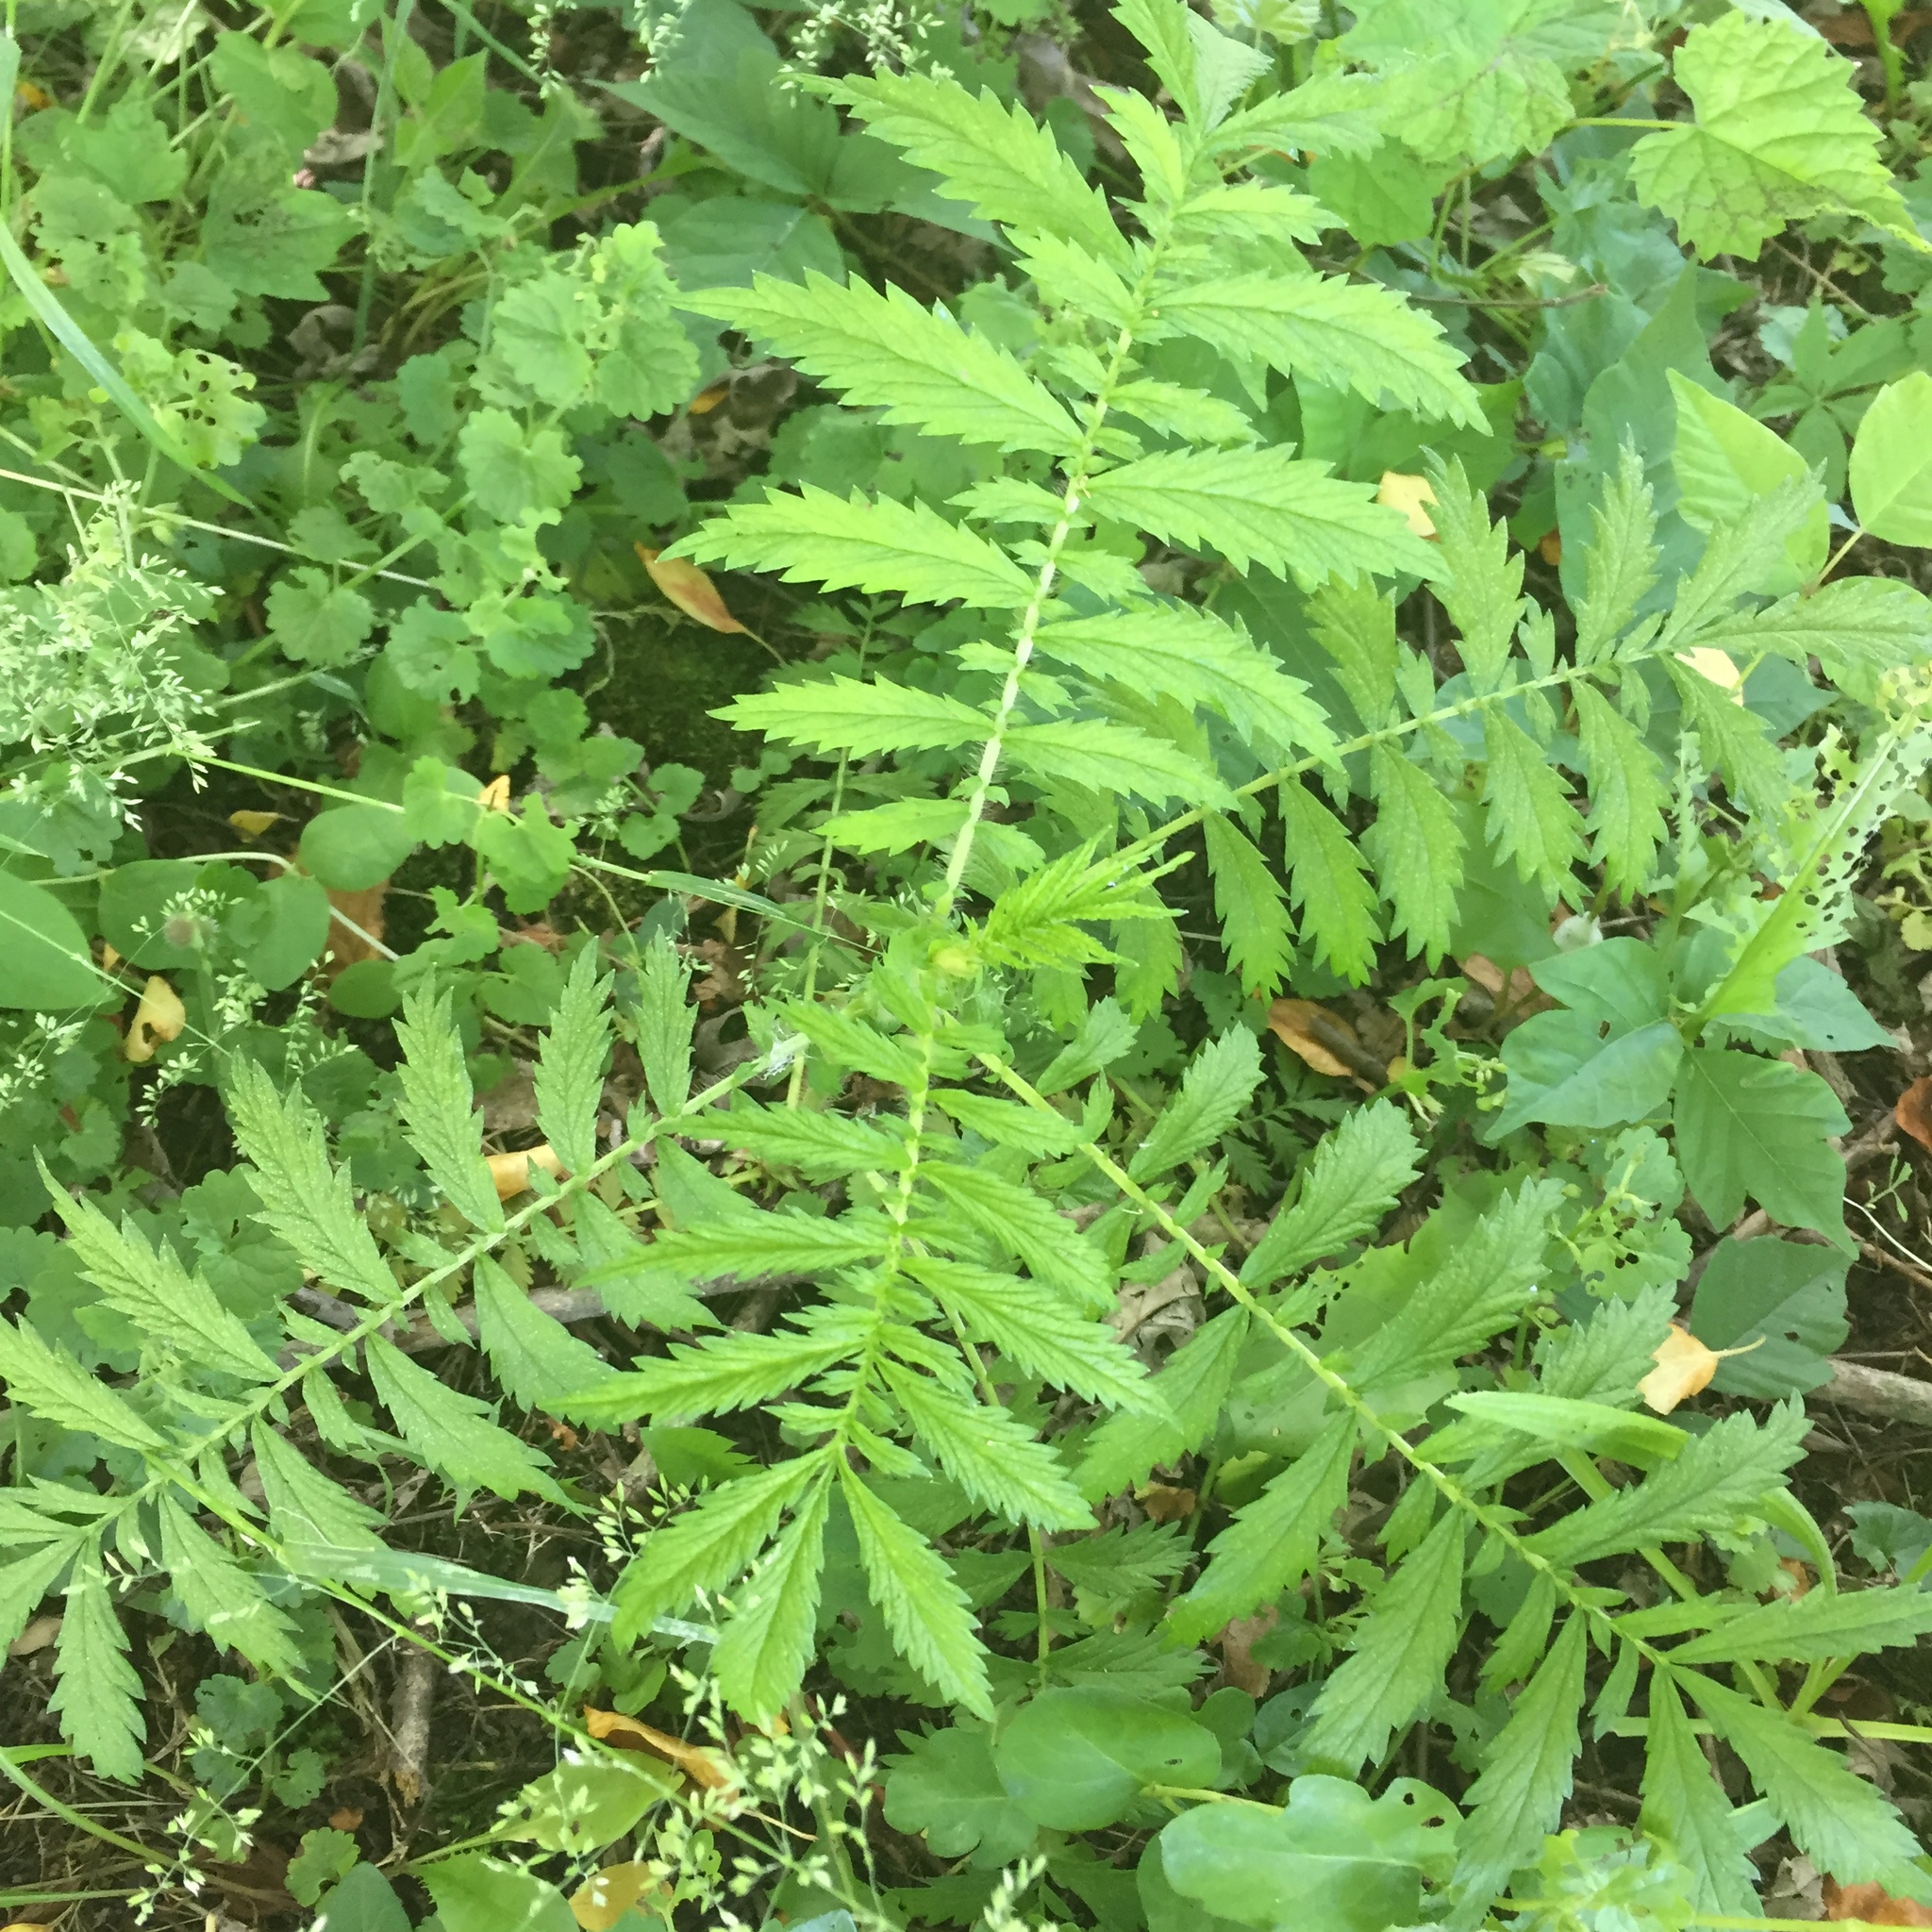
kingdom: Plantae
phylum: Tracheophyta
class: Magnoliopsida
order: Rosales
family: Rosaceae
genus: Agrimonia
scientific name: Agrimonia parviflora
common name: Harvest-lice
